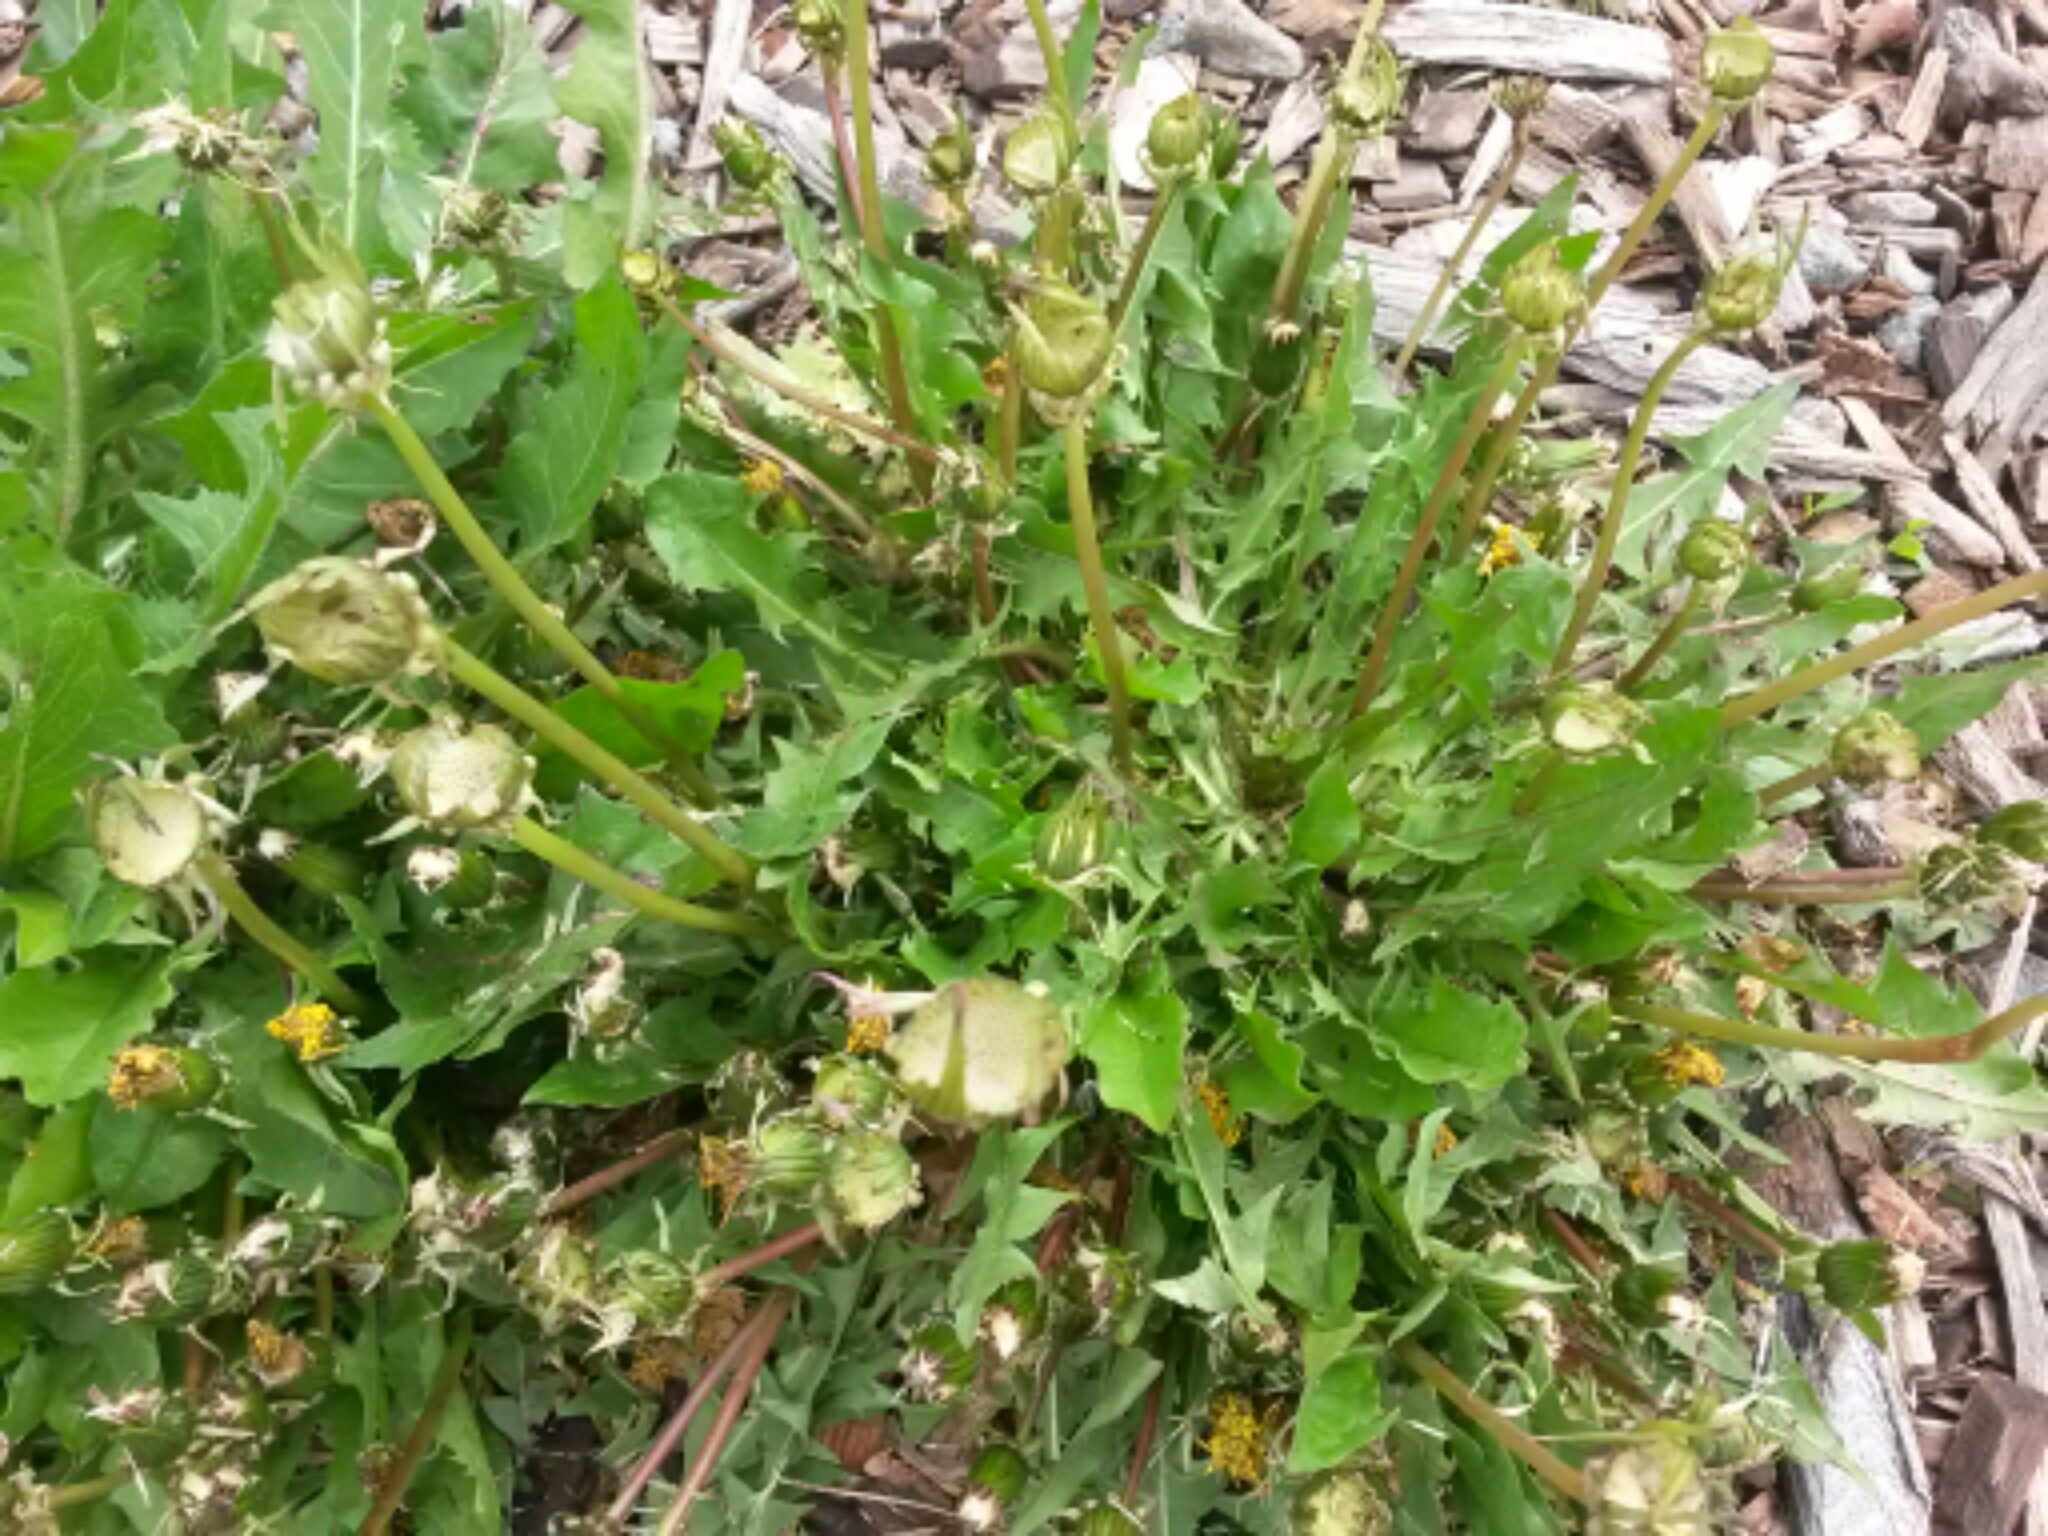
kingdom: Plantae
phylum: Tracheophyta
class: Magnoliopsida
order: Asterales
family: Asteraceae
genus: Taraxacum
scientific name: Taraxacum
